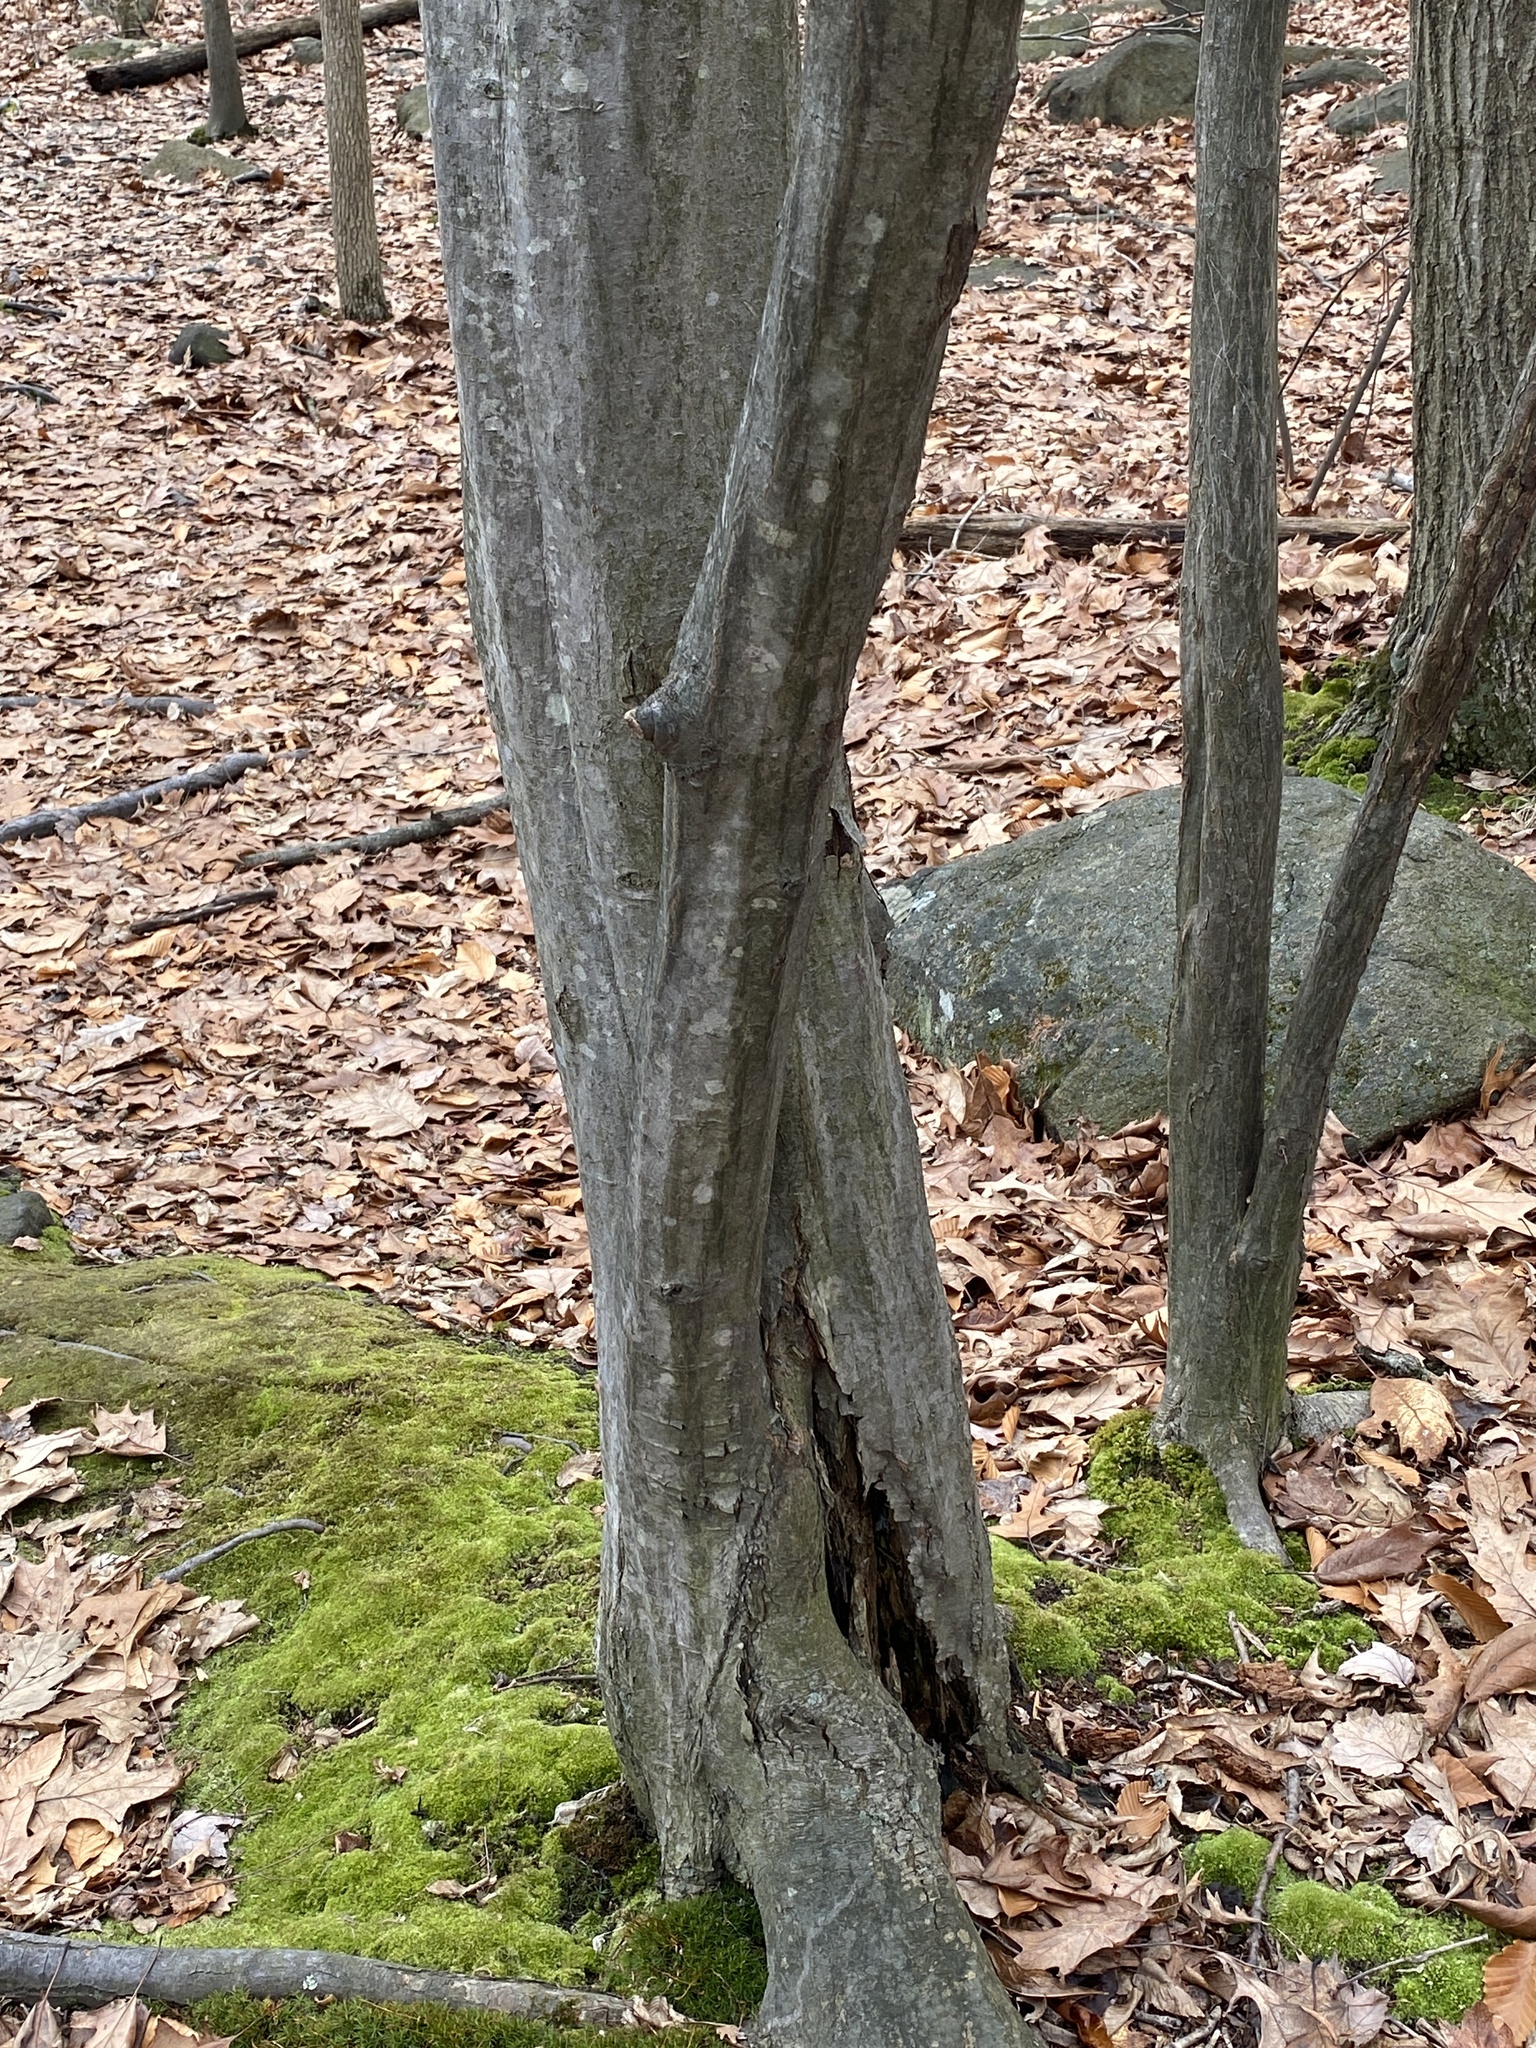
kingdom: Plantae
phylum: Tracheophyta
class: Magnoliopsida
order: Fagales
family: Betulaceae
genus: Carpinus
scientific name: Carpinus caroliniana
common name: American hornbeam
